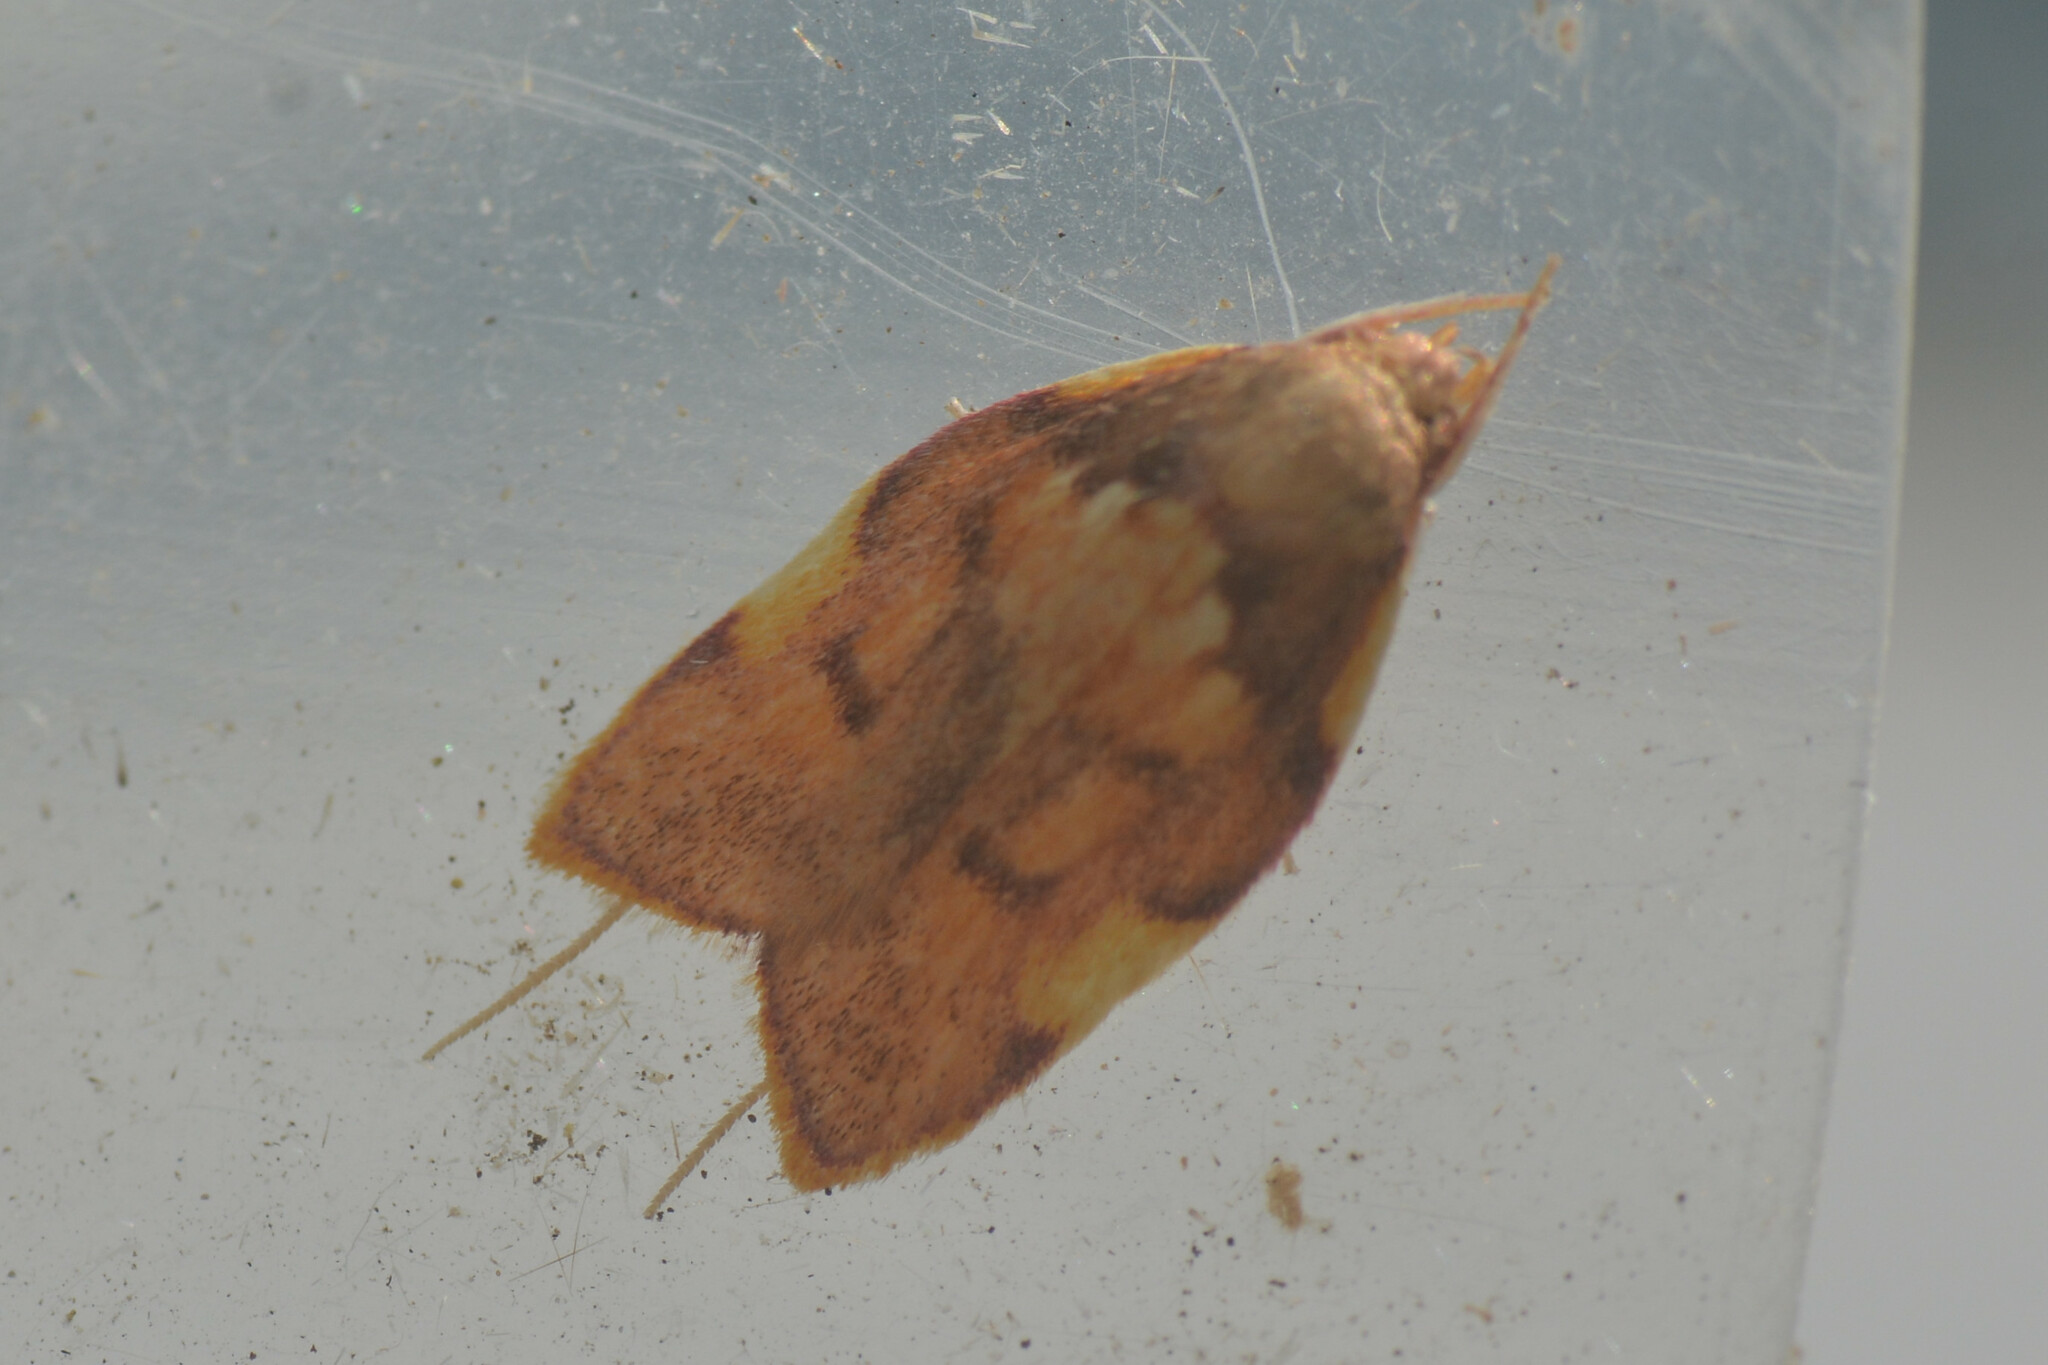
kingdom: Animalia
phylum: Arthropoda
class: Insecta
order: Lepidoptera
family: Peleopodidae
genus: Carcina
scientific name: Carcina quercana
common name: Moth
